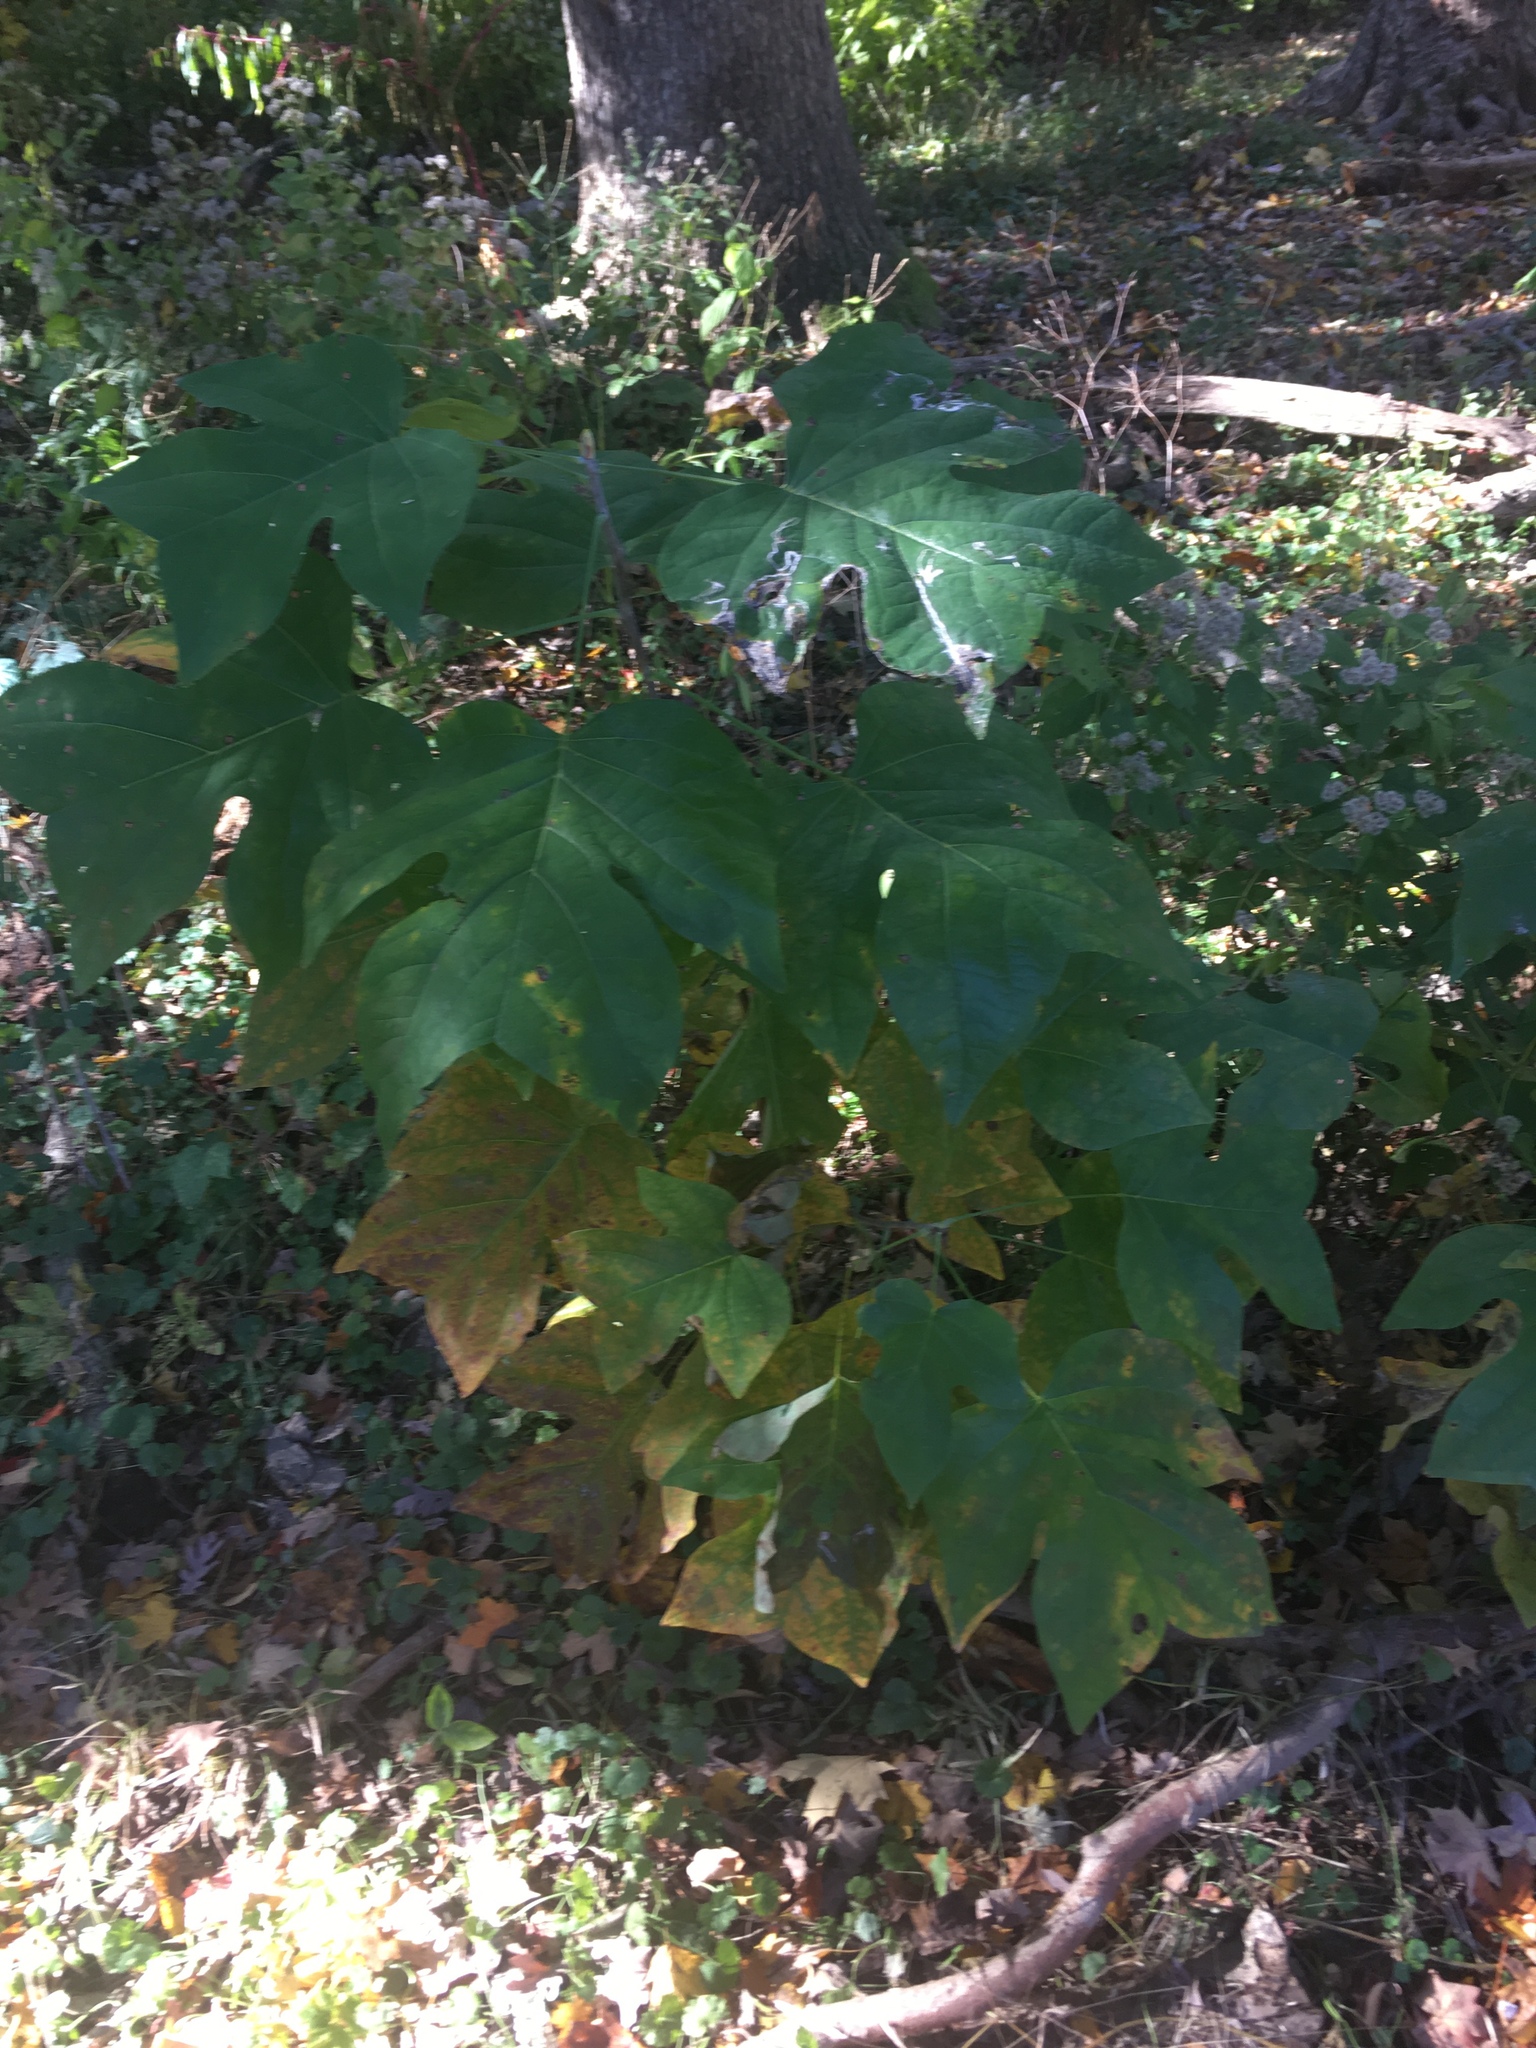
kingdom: Plantae
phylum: Tracheophyta
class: Magnoliopsida
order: Magnoliales
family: Magnoliaceae
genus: Liriodendron
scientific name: Liriodendron tulipifera
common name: Tulip tree
